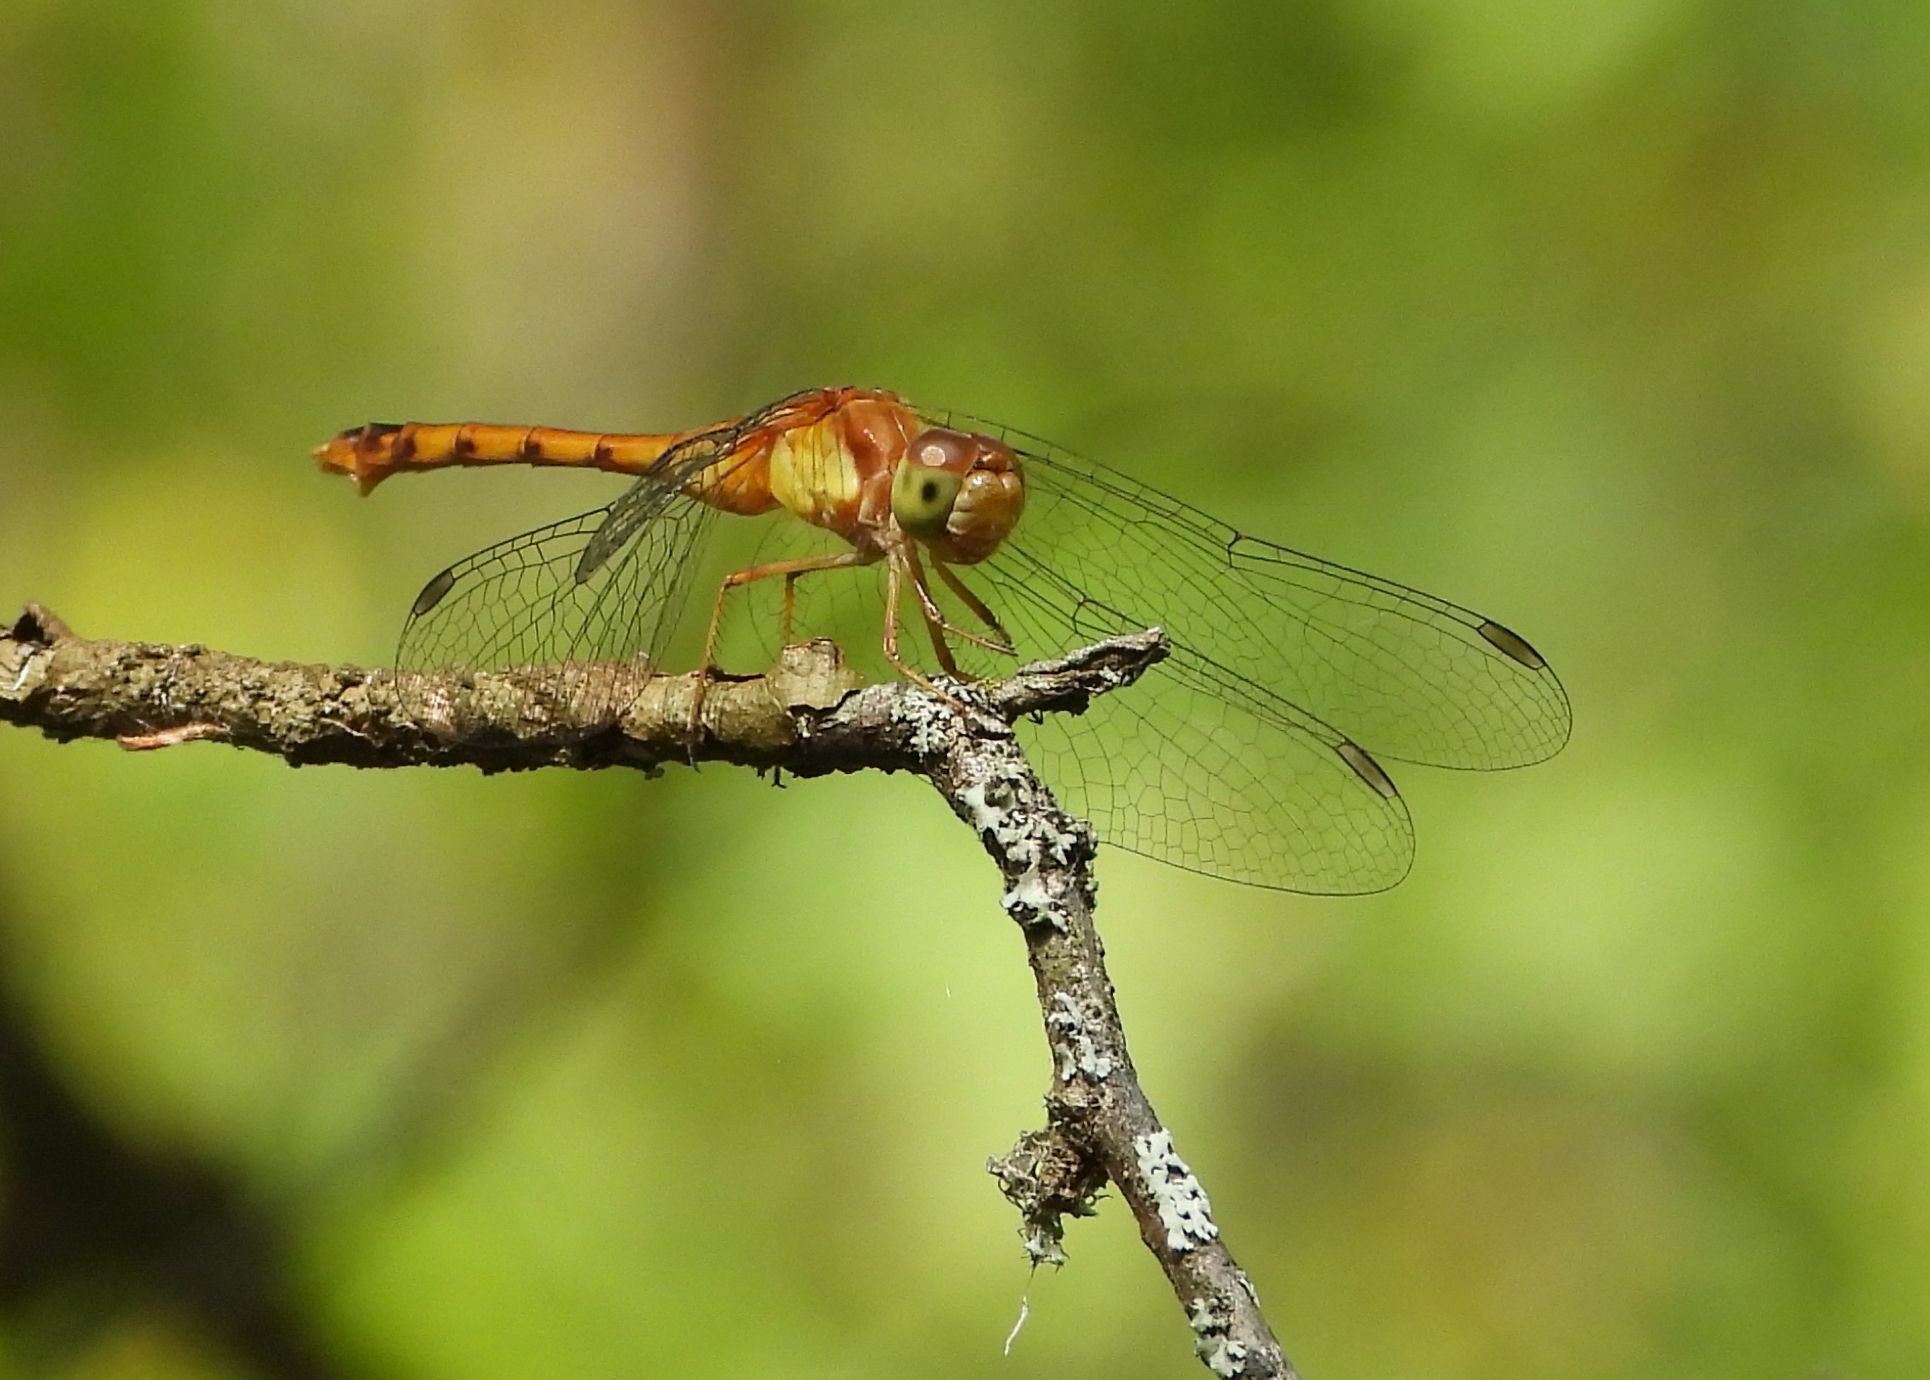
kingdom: Animalia
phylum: Arthropoda
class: Insecta
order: Odonata
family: Libellulidae
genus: Sympetrum
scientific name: Sympetrum vicinum
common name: Autumn meadowhawk
